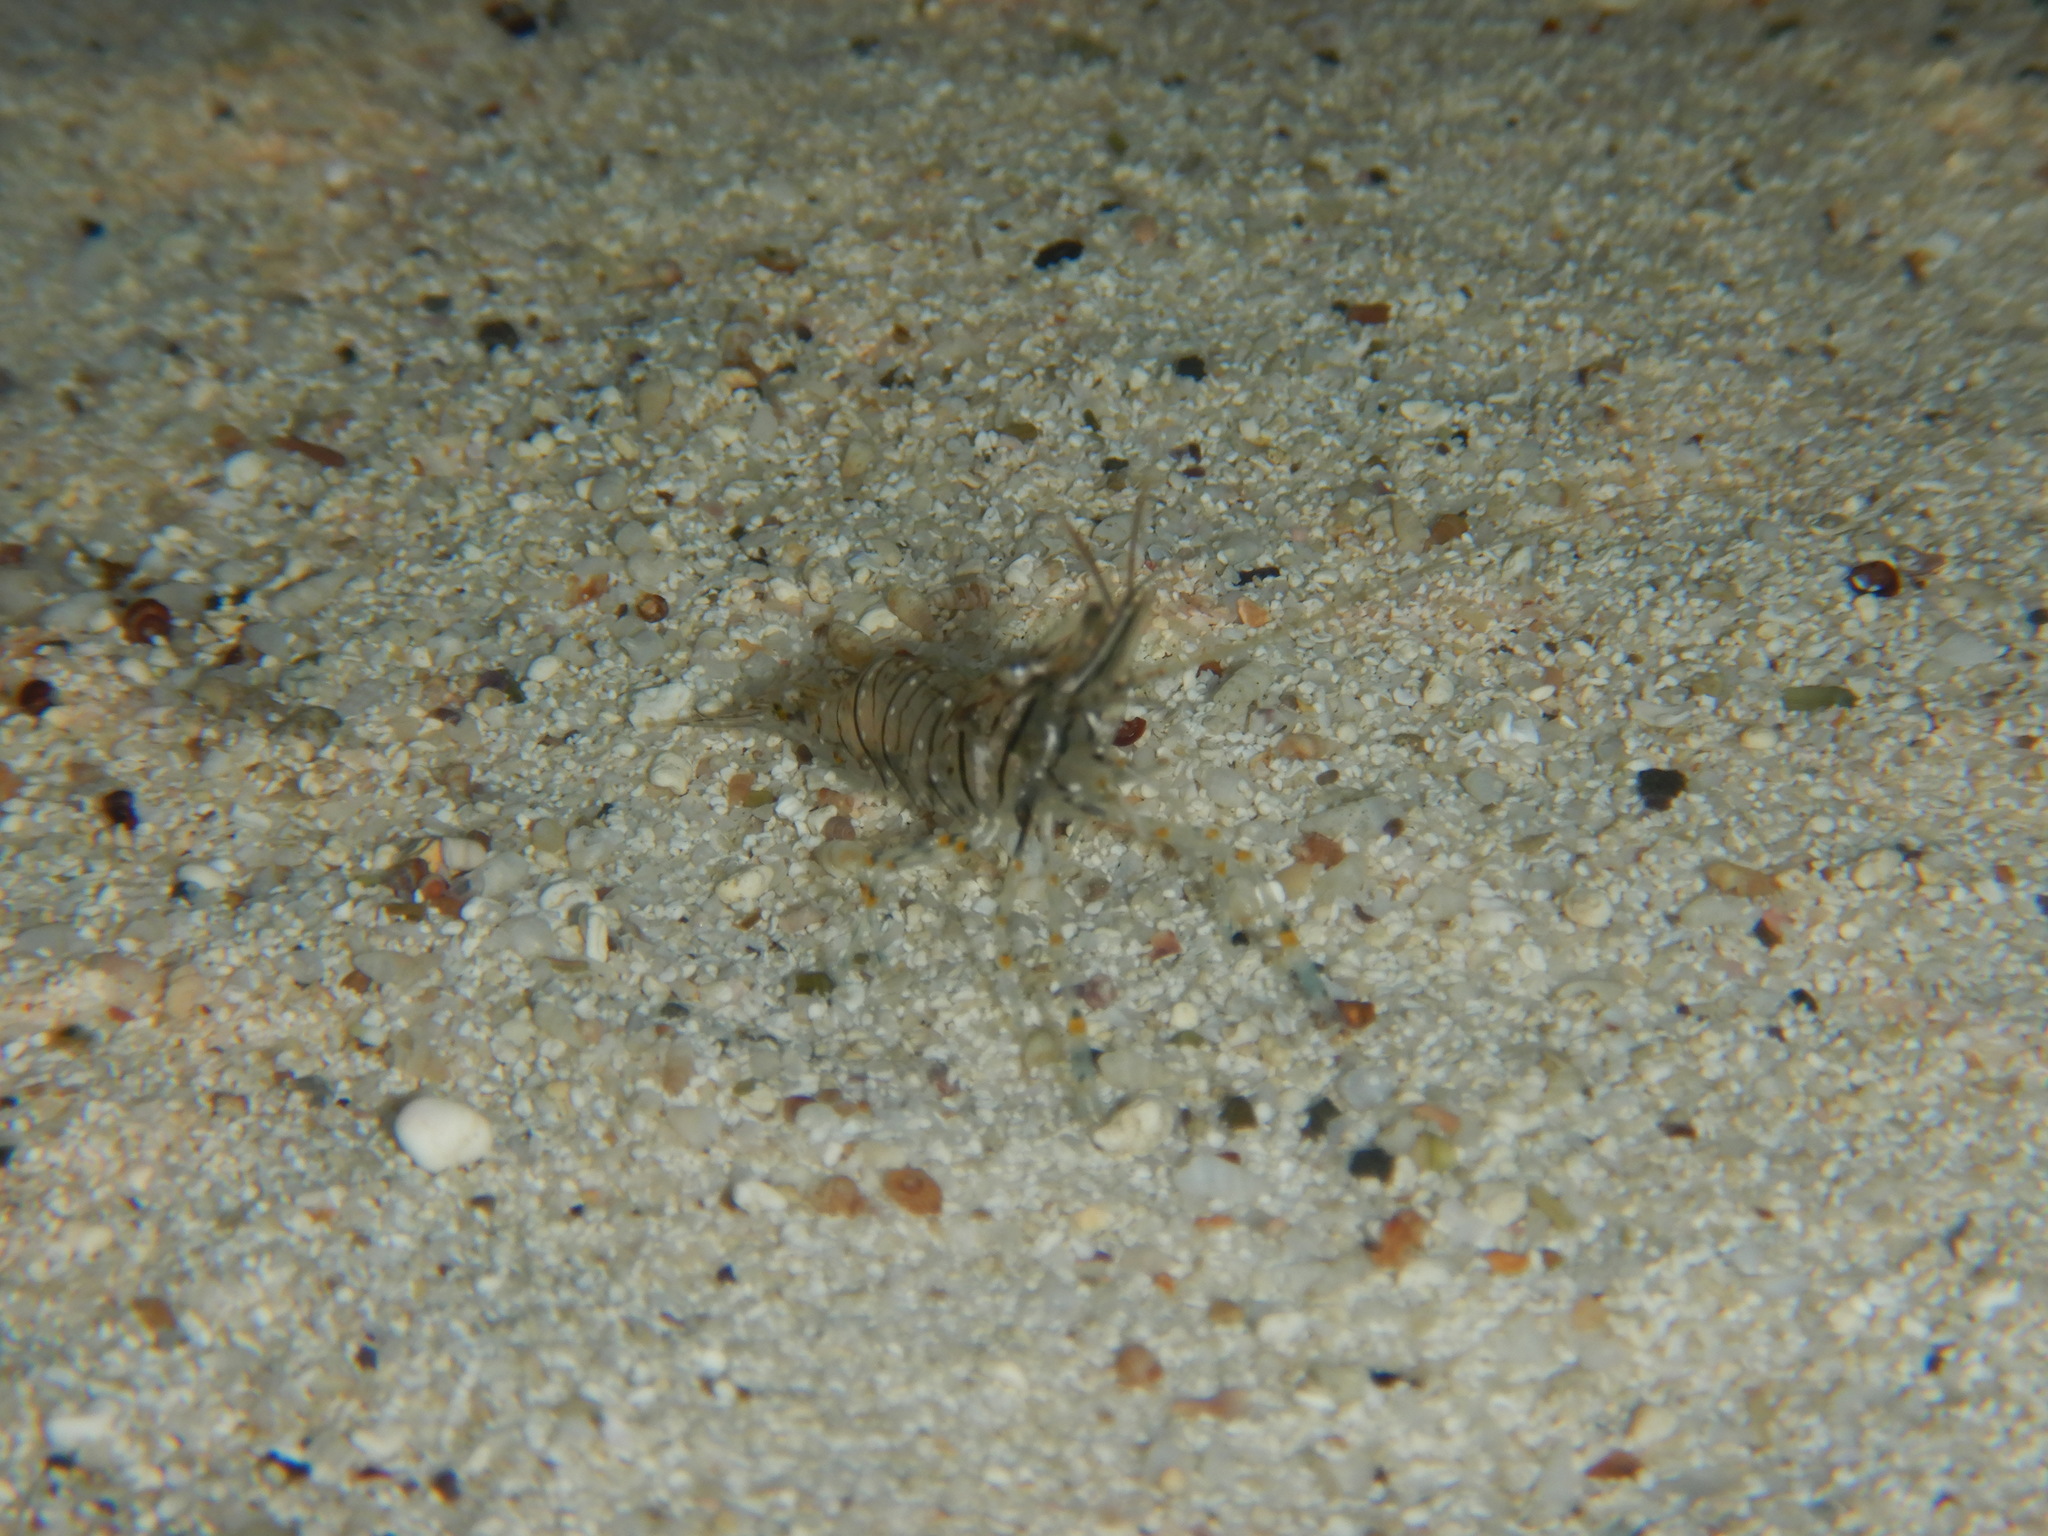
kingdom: Animalia
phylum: Arthropoda
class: Malacostraca
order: Decapoda
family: Palaemonidae
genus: Palaemon
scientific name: Palaemon elegans
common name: Grass prawm
